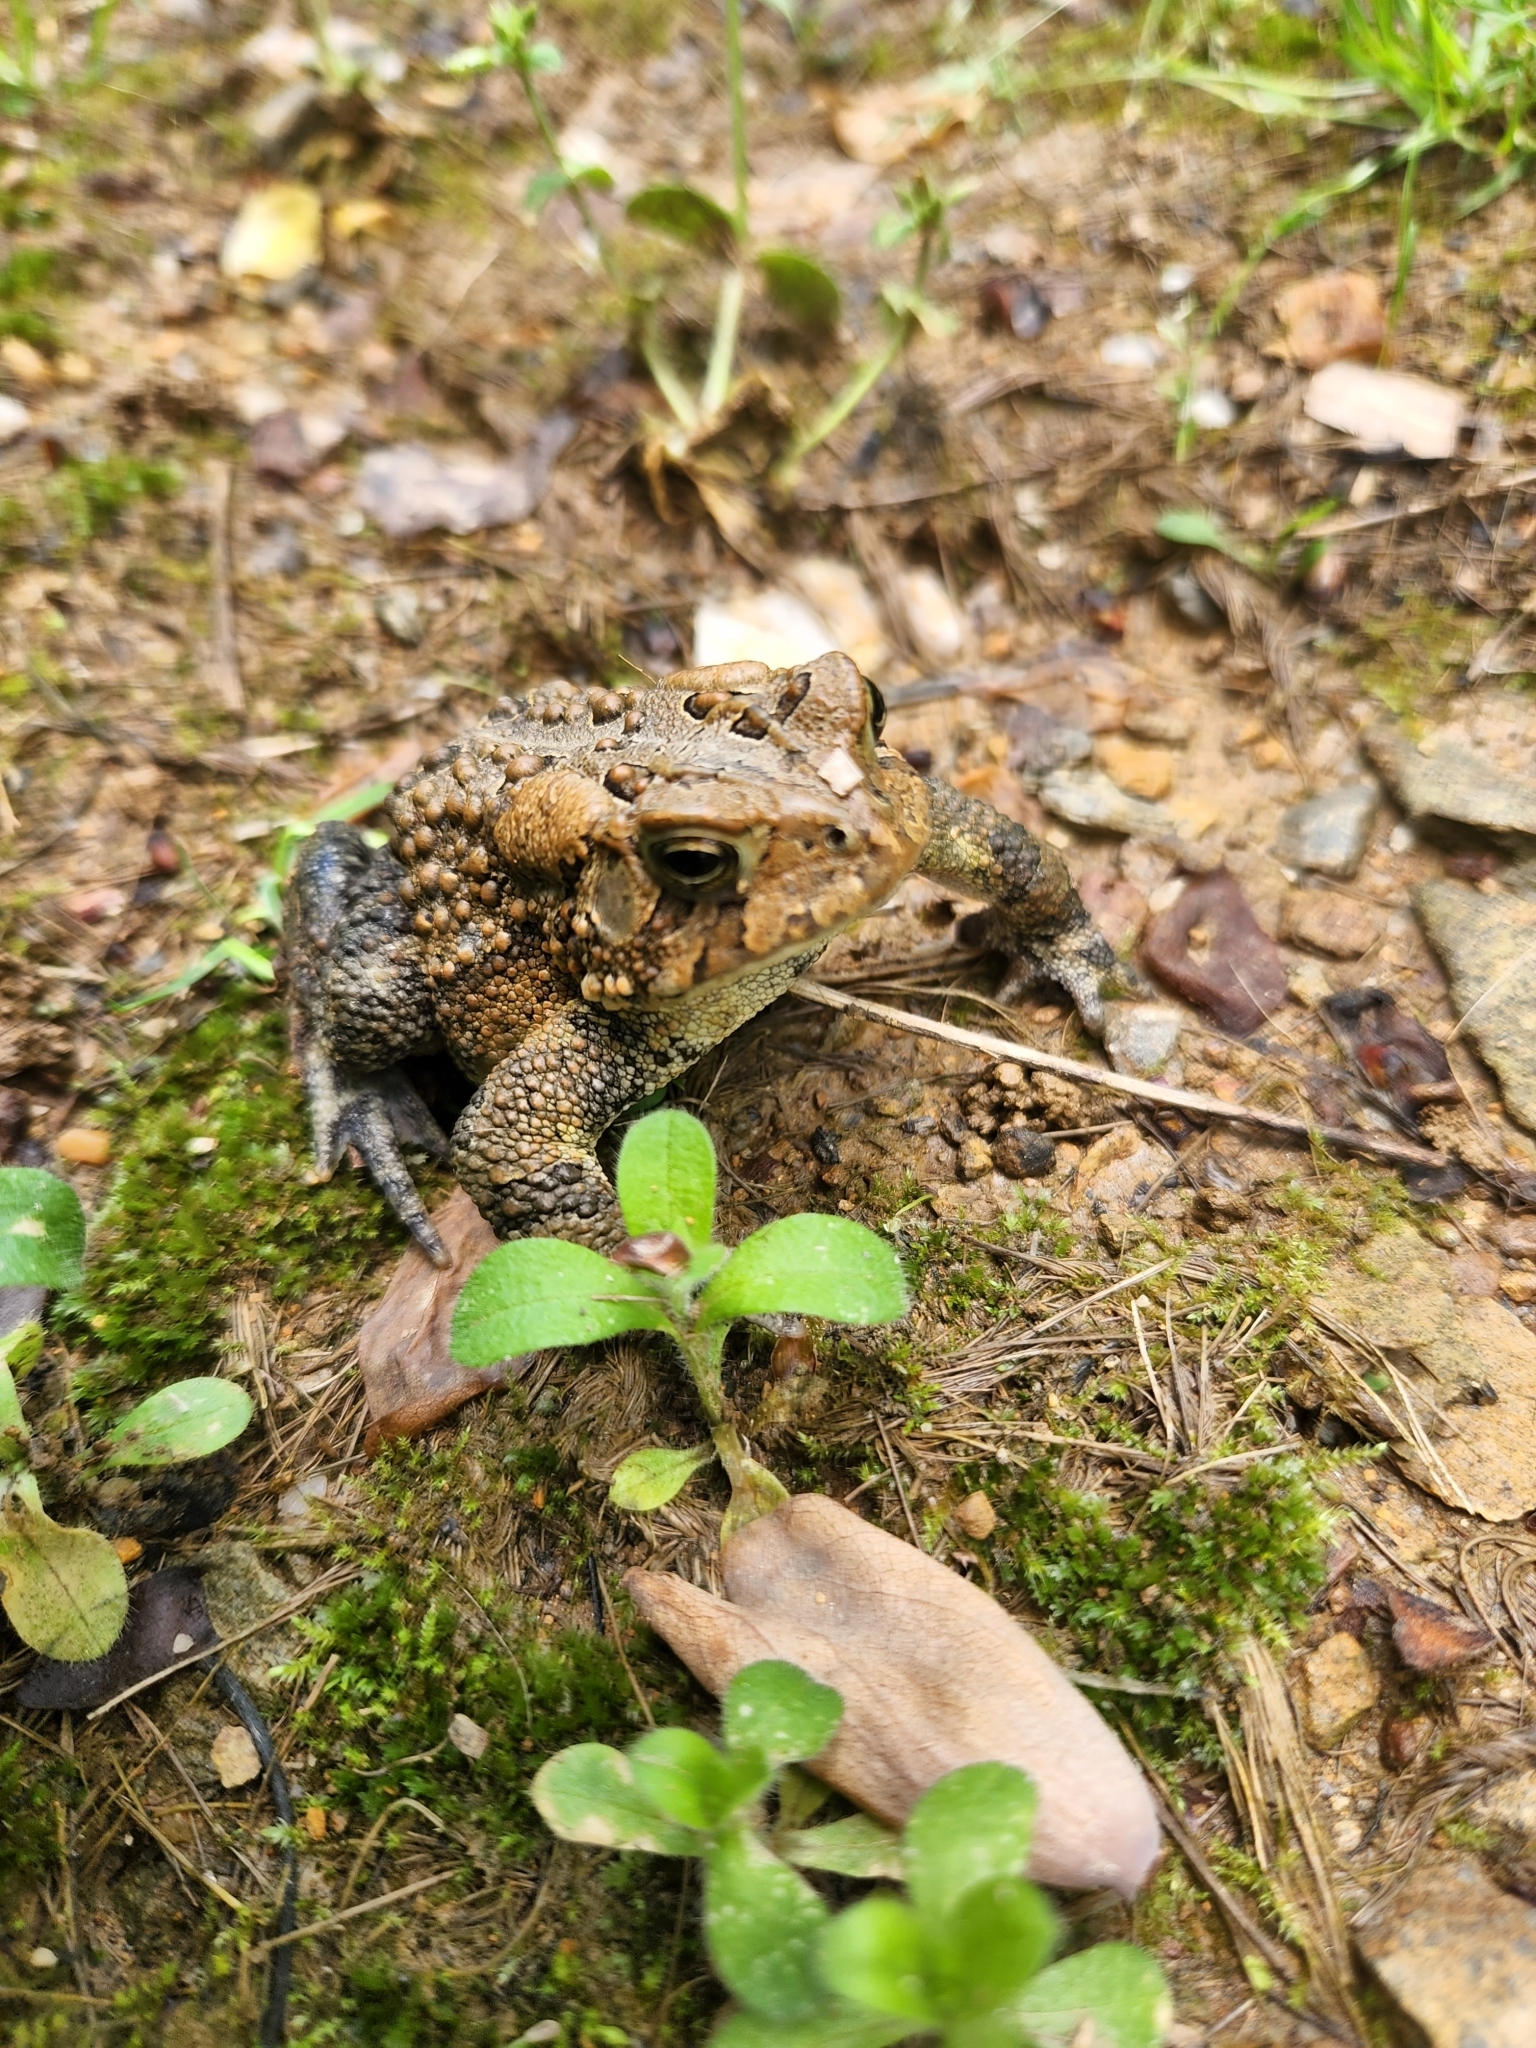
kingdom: Animalia
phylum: Chordata
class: Amphibia
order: Anura
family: Bufonidae
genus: Anaxyrus
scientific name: Anaxyrus americanus
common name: American toad
